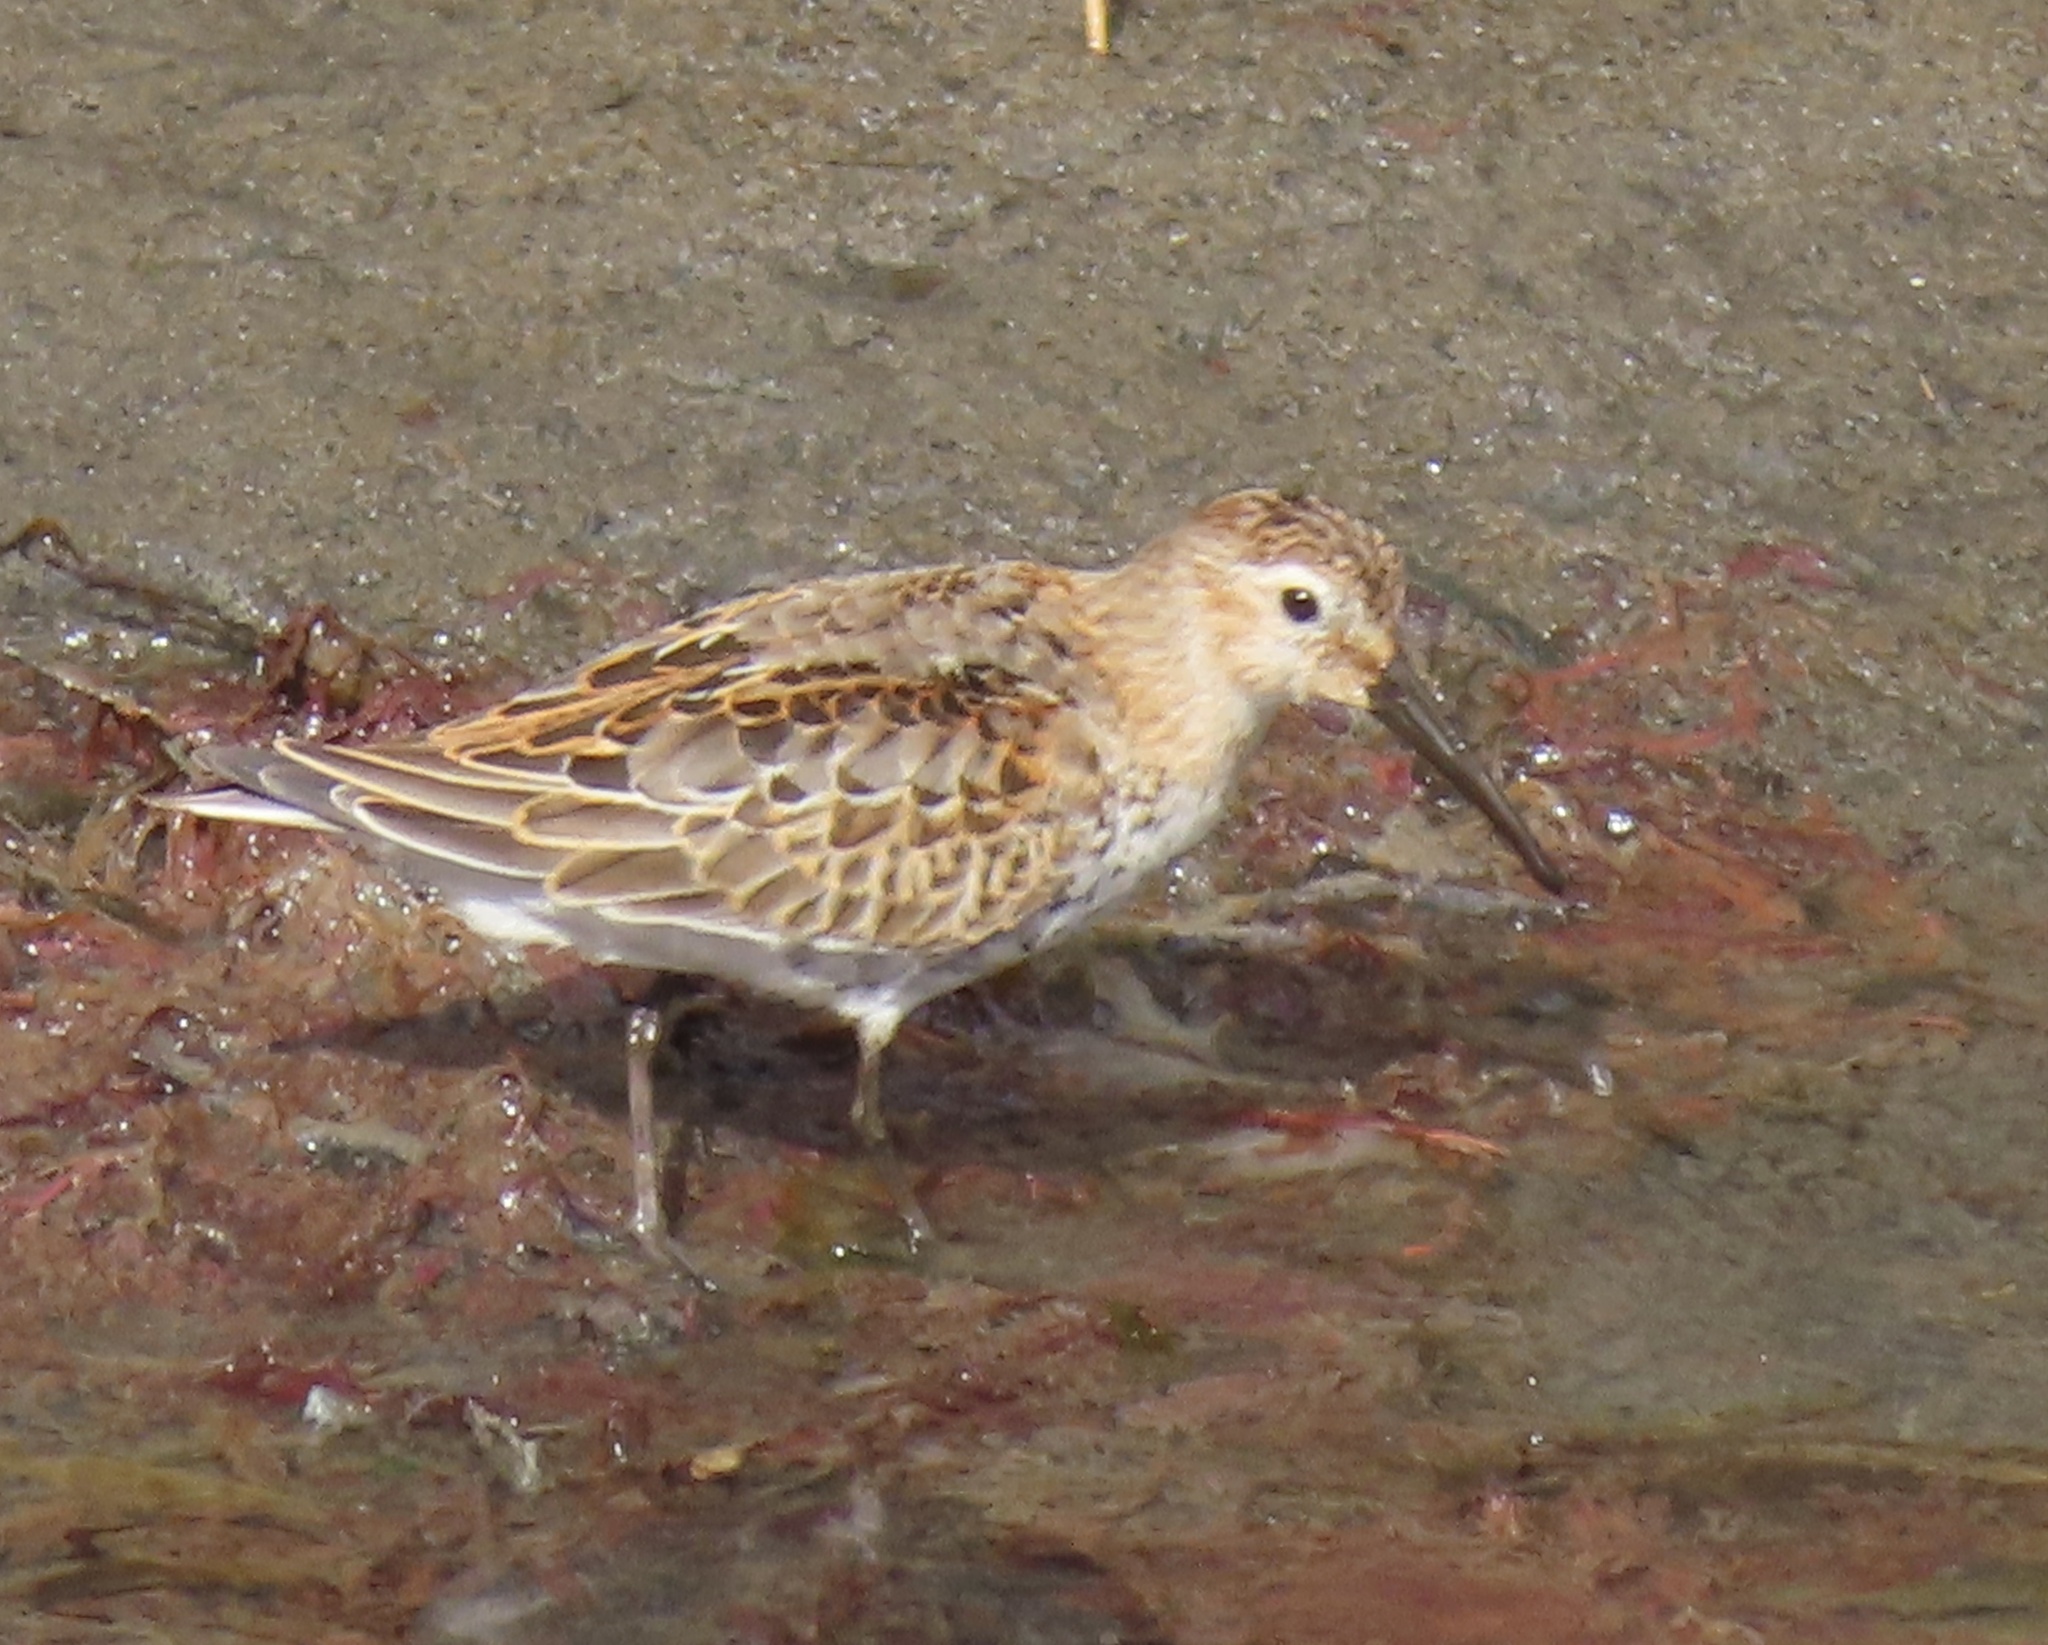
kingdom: Animalia
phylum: Chordata
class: Aves
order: Charadriiformes
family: Scolopacidae
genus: Calidris
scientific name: Calidris alpina
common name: Dunlin
